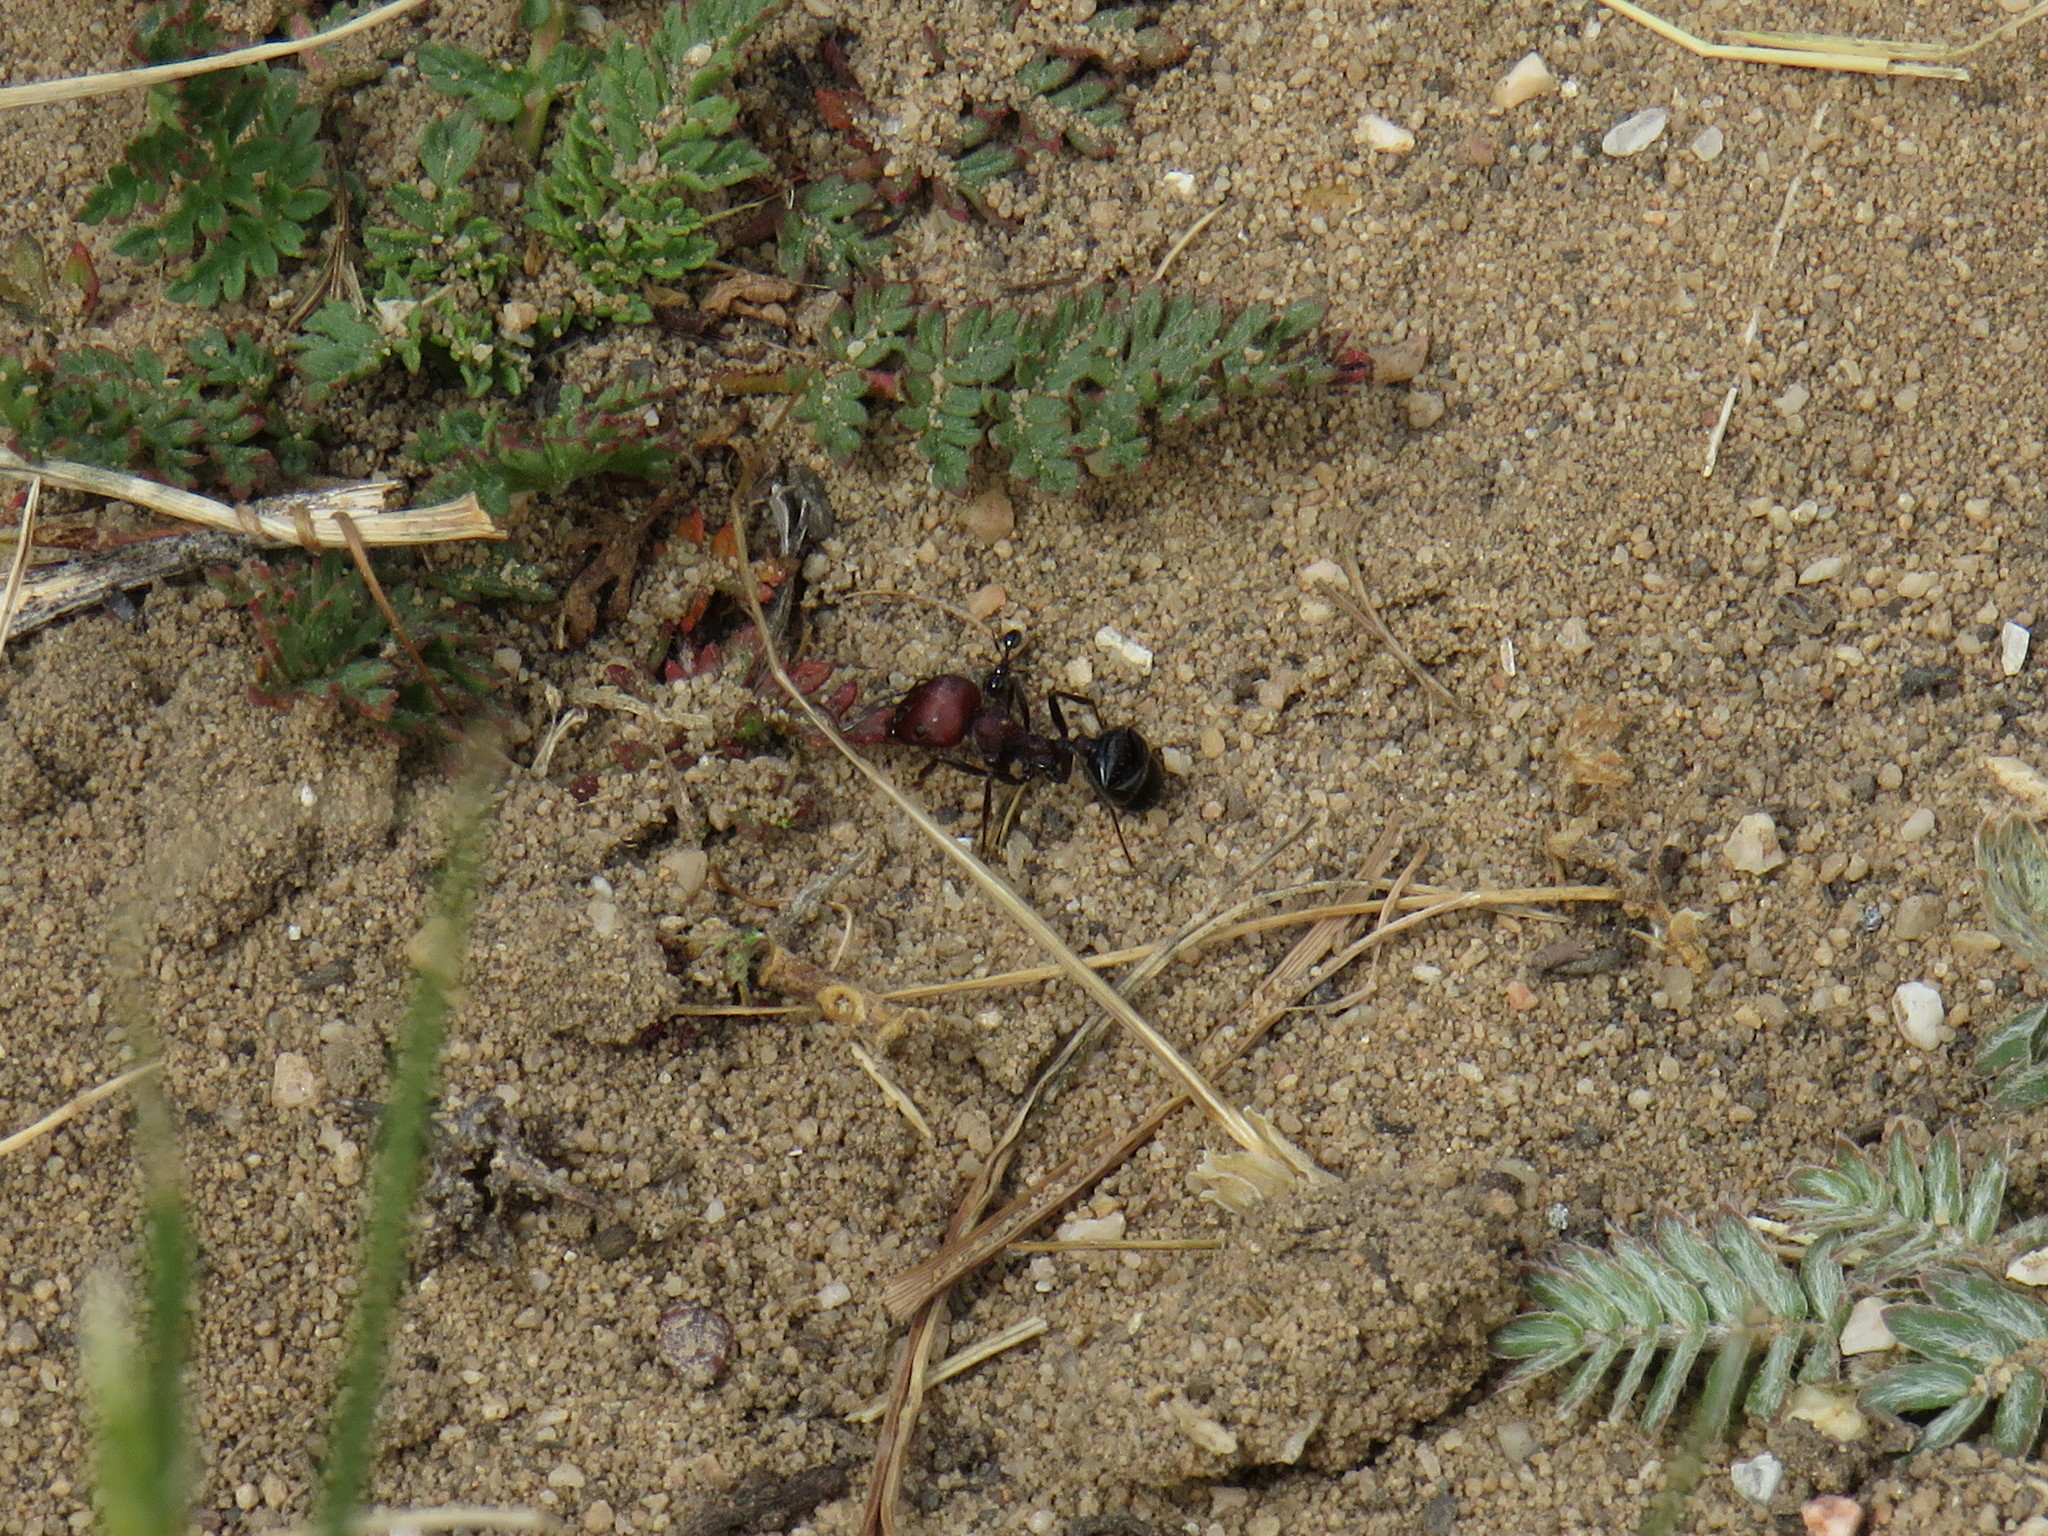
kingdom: Animalia
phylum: Arthropoda
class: Insecta
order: Hymenoptera
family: Formicidae
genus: Monomorium
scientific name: Monomorium fridae
